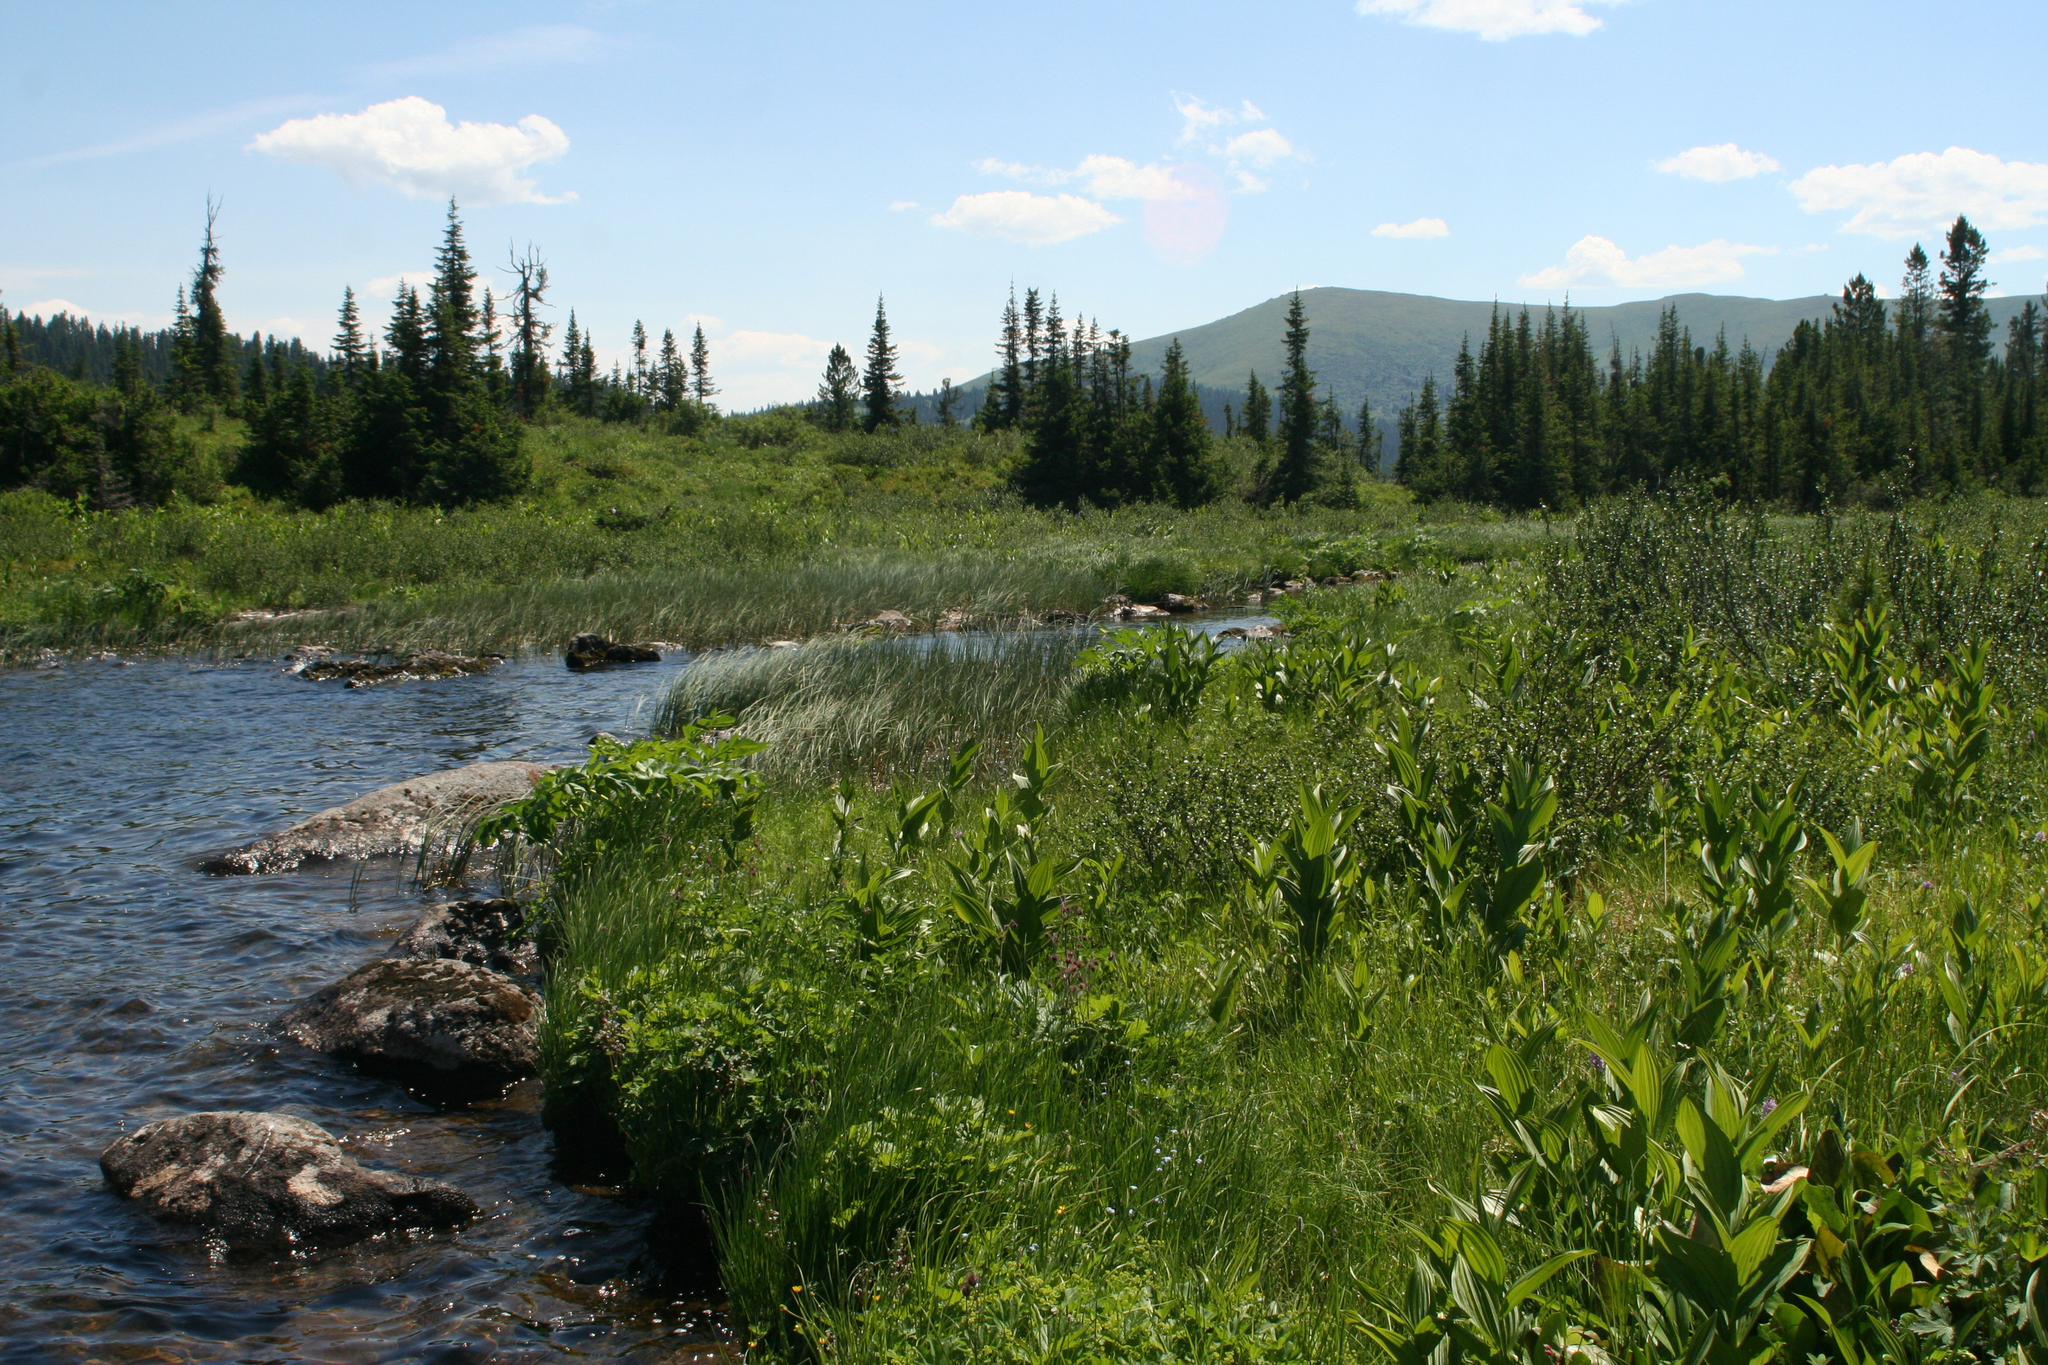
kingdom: Plantae
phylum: Tracheophyta
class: Liliopsida
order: Liliales
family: Melanthiaceae
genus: Veratrum
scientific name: Veratrum lobelianum
